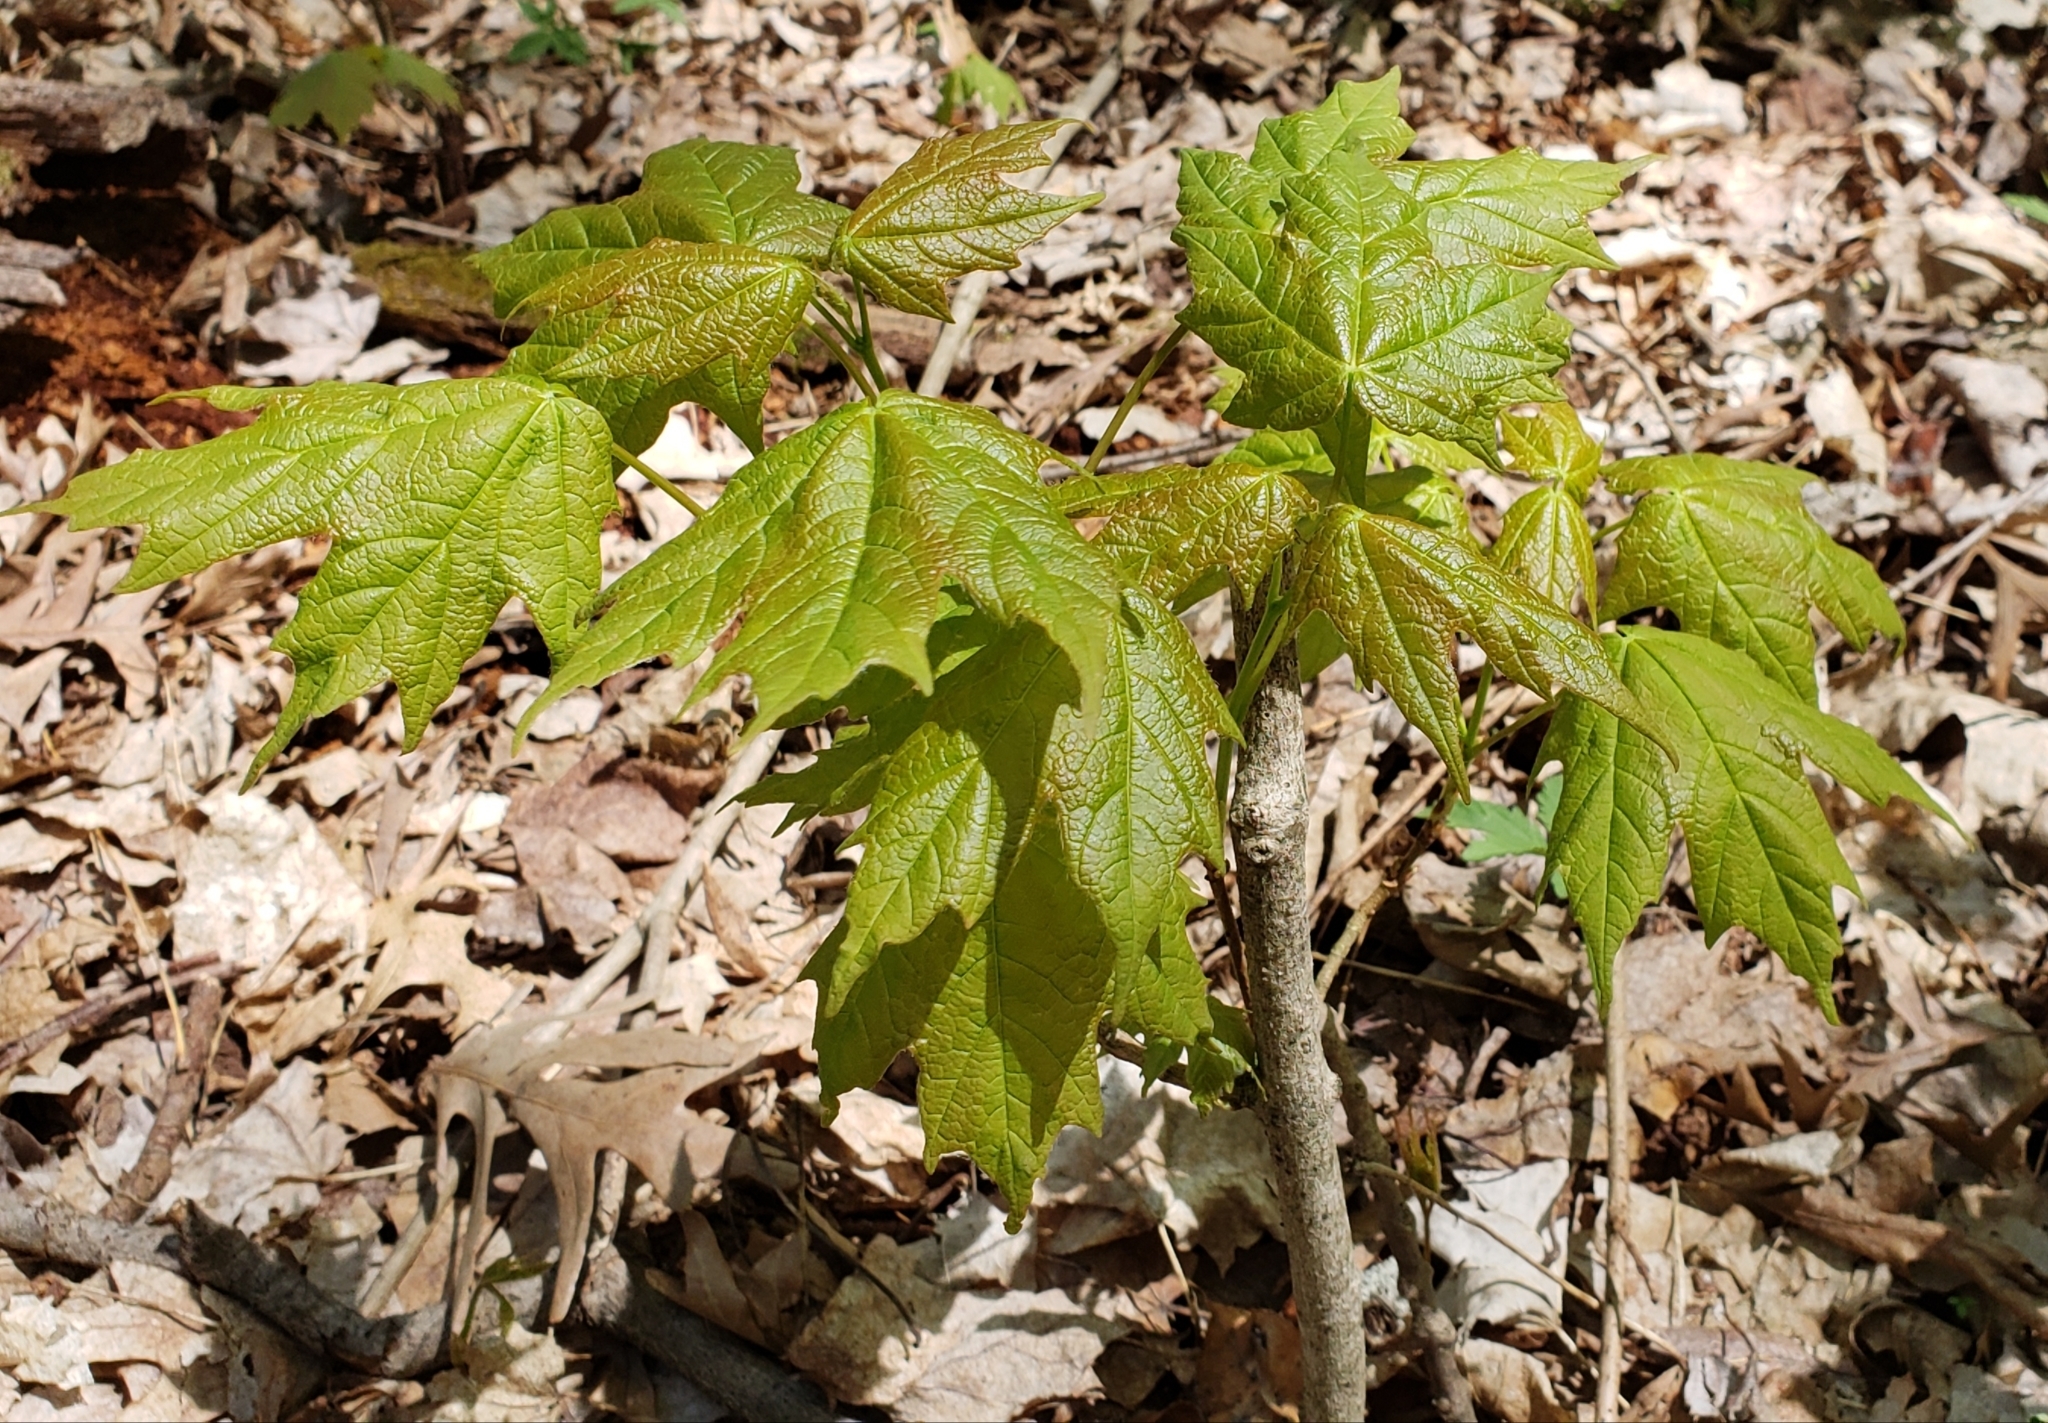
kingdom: Plantae
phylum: Tracheophyta
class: Magnoliopsida
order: Sapindales
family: Sapindaceae
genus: Acer
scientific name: Acer saccharum
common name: Sugar maple
